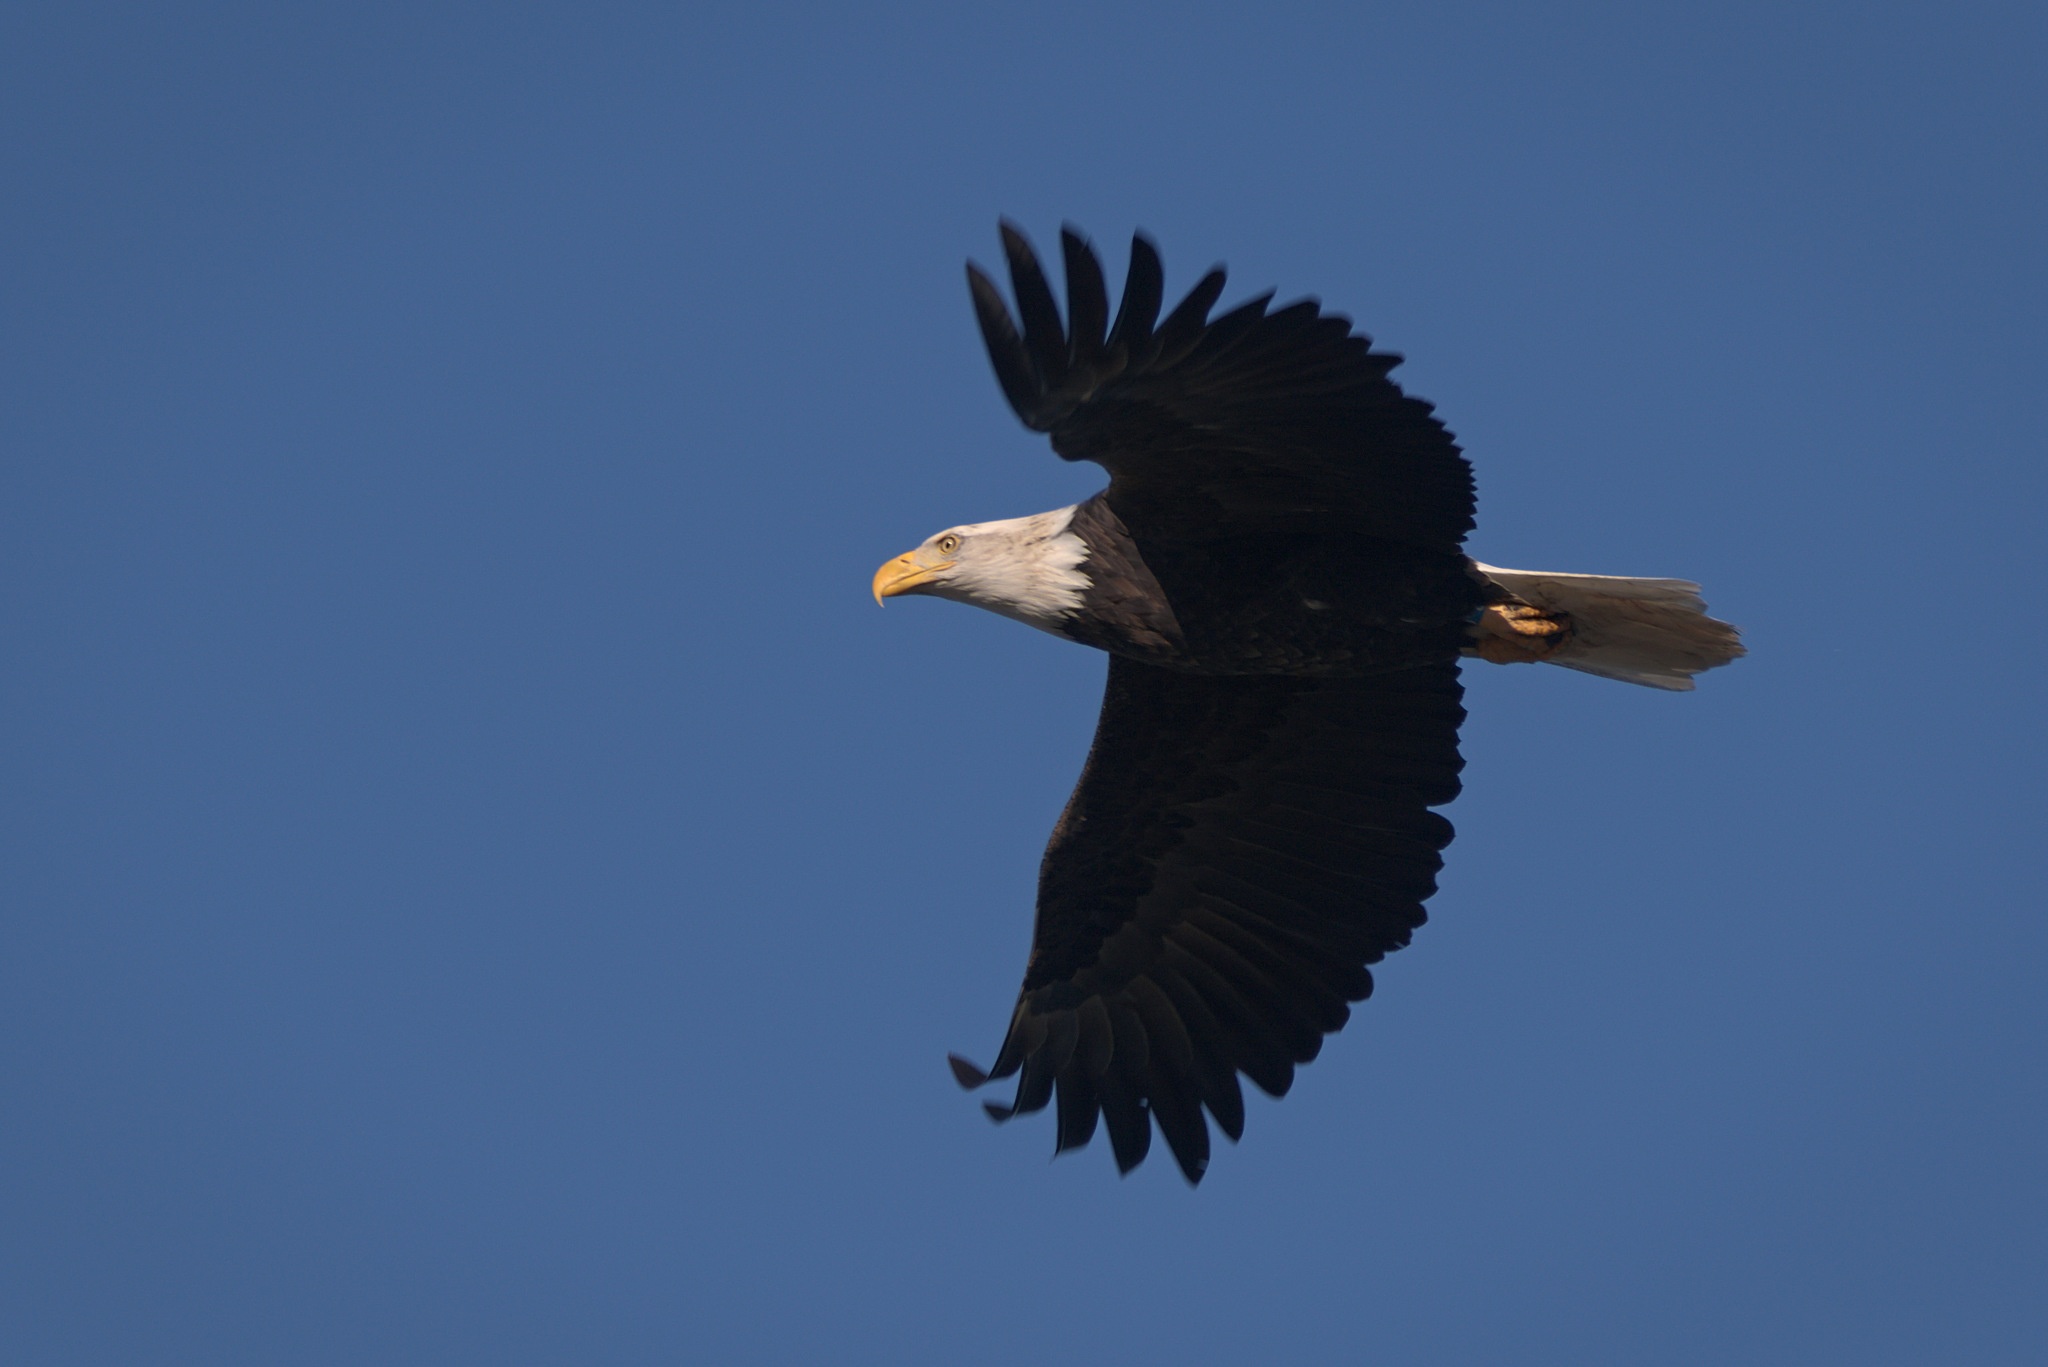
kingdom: Animalia
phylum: Chordata
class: Aves
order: Accipitriformes
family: Accipitridae
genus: Haliaeetus
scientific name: Haliaeetus leucocephalus
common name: Bald eagle
